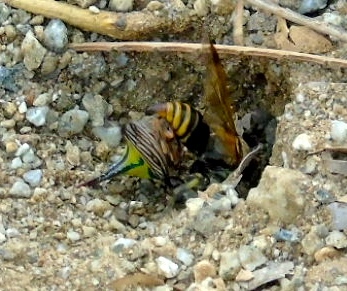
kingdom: Animalia
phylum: Arthropoda
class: Insecta
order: Hemiptera
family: Membracidae
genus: Umbonia
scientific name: Umbonia crassicornis
